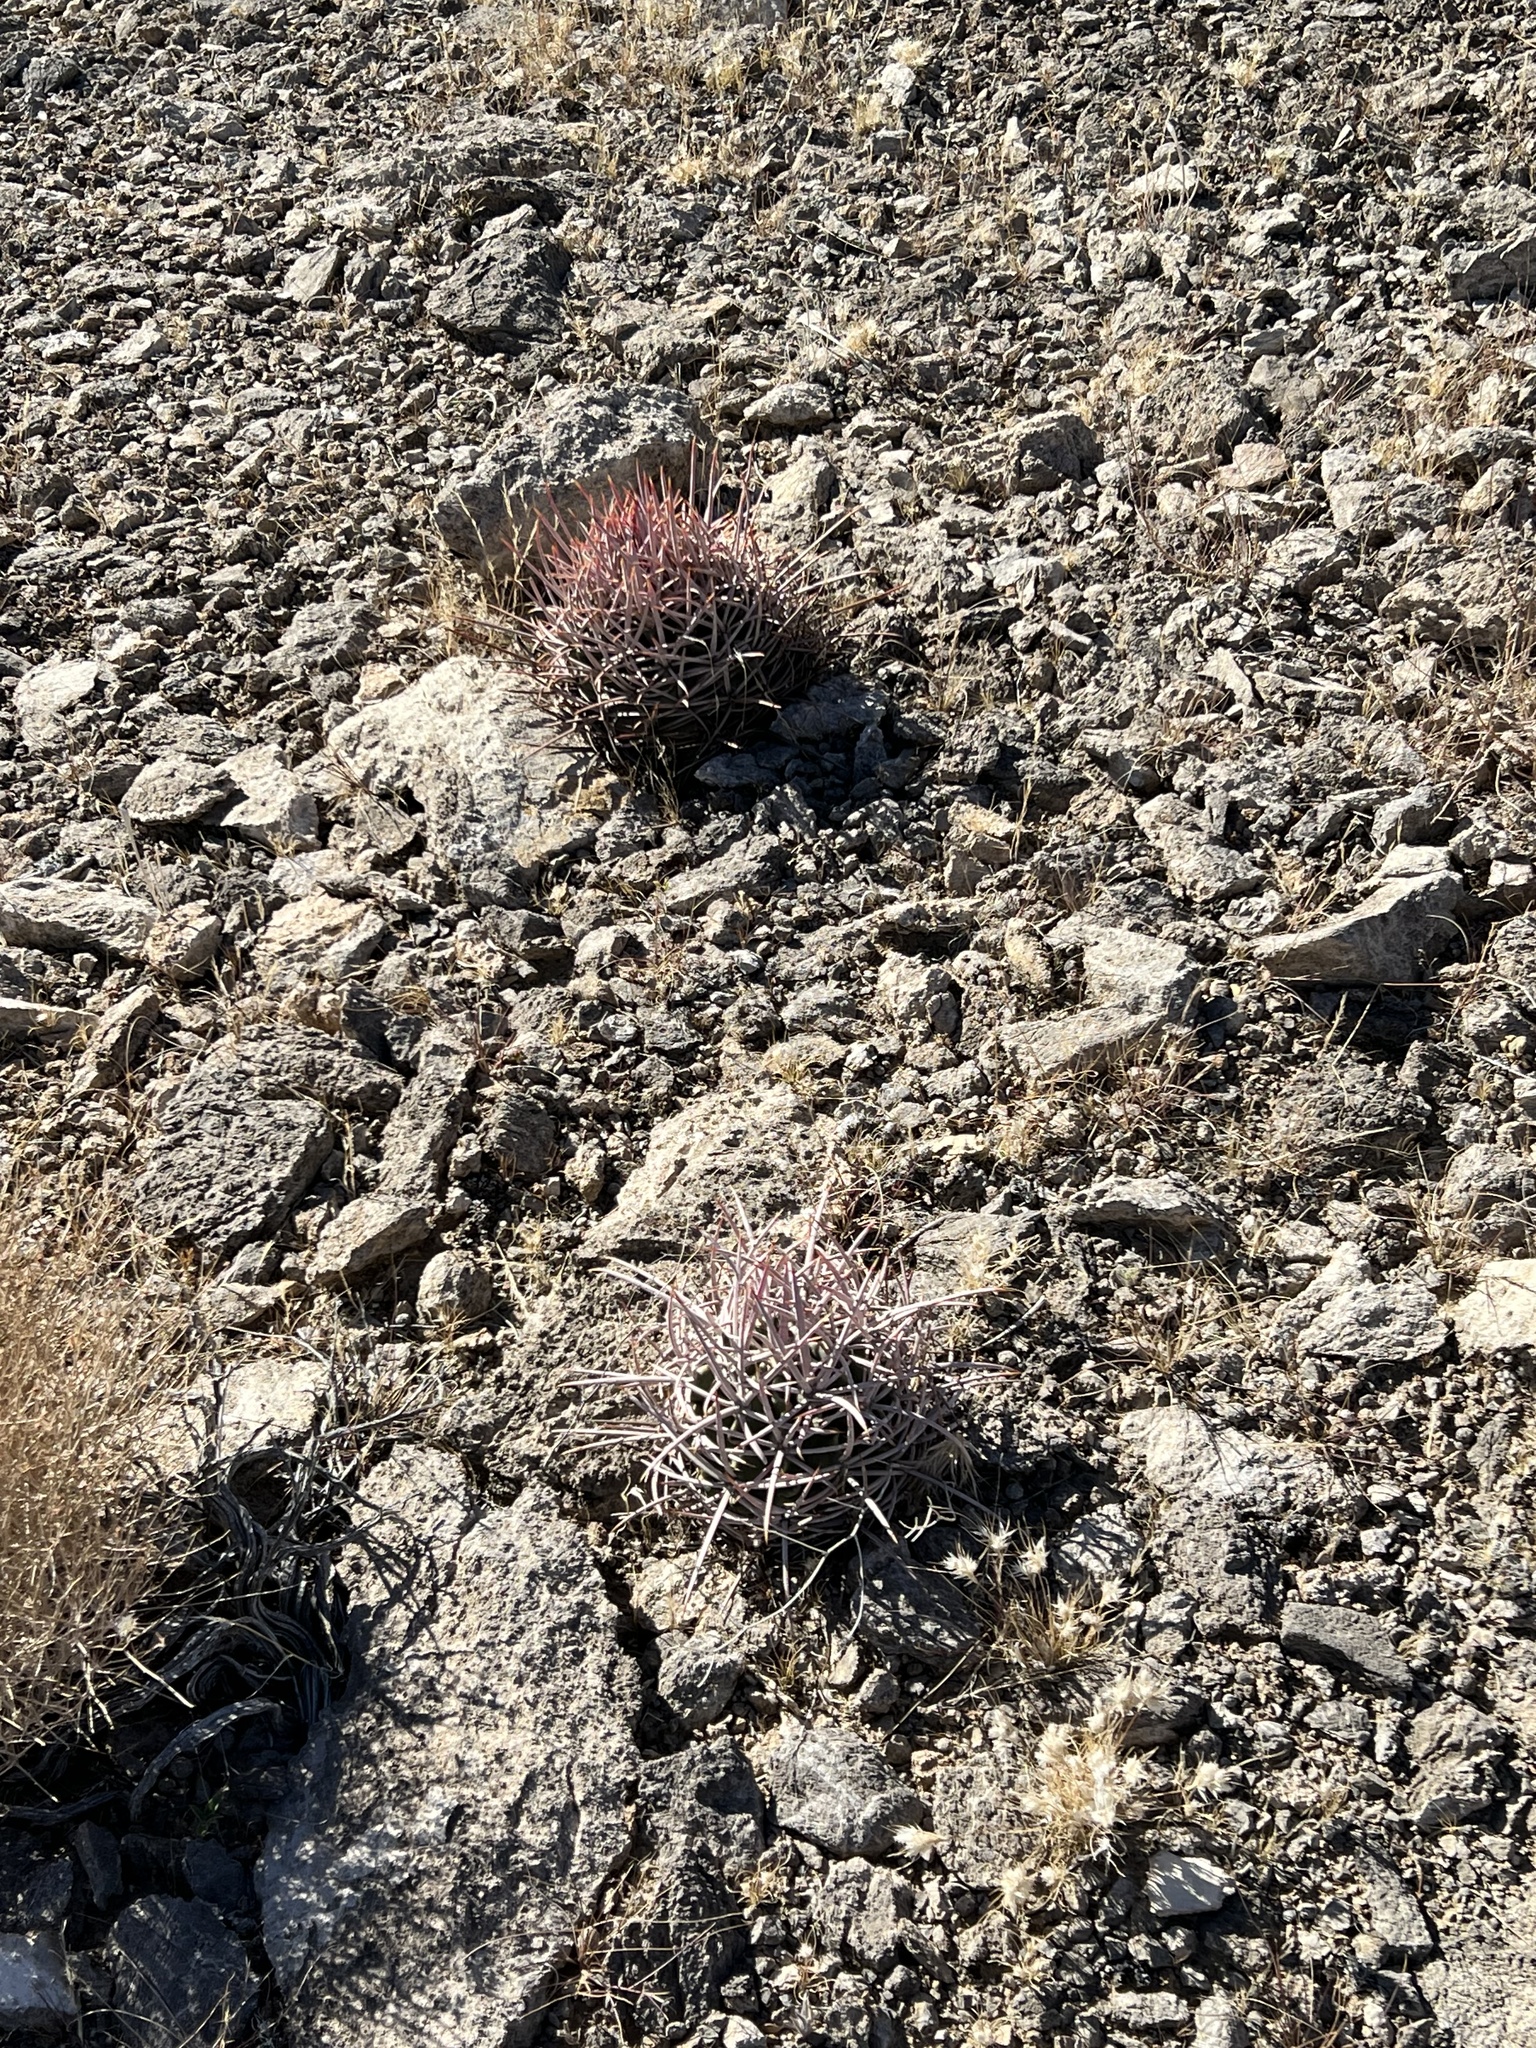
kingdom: Plantae
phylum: Tracheophyta
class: Magnoliopsida
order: Caryophyllales
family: Cactaceae
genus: Echinocactus
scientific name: Echinocactus polycephalus
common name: Cottontop cactus
